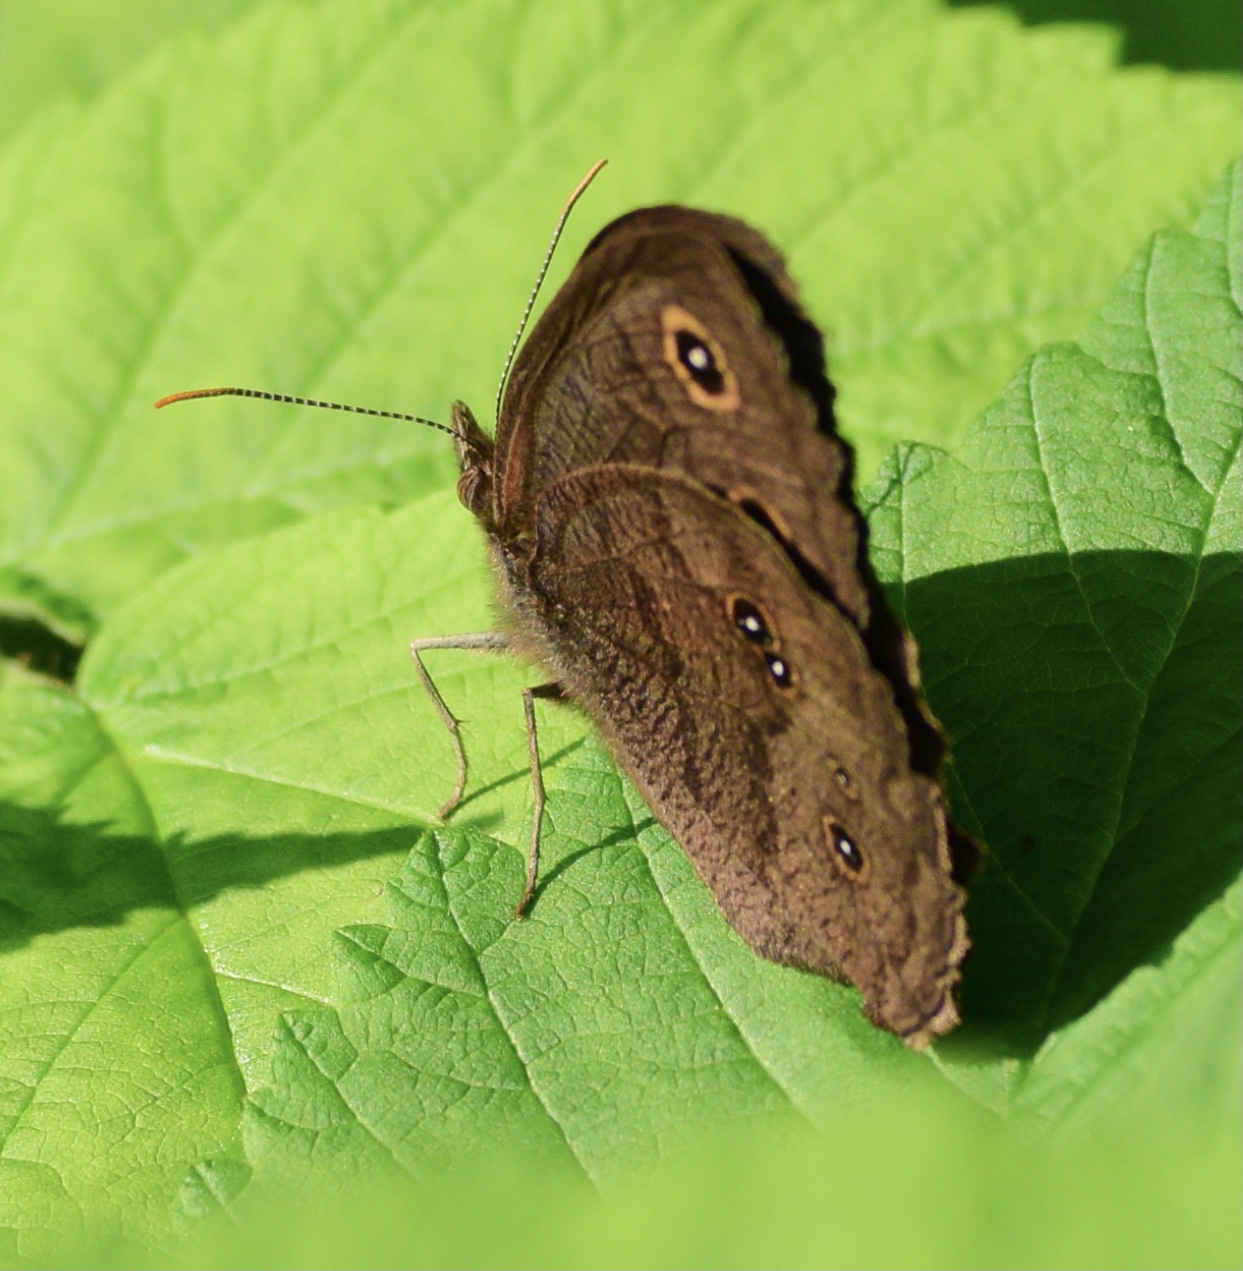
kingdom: Animalia
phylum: Arthropoda
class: Insecta
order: Lepidoptera
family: Nymphalidae
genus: Cercyonis
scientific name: Cercyonis pegala
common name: Common wood-nymph
